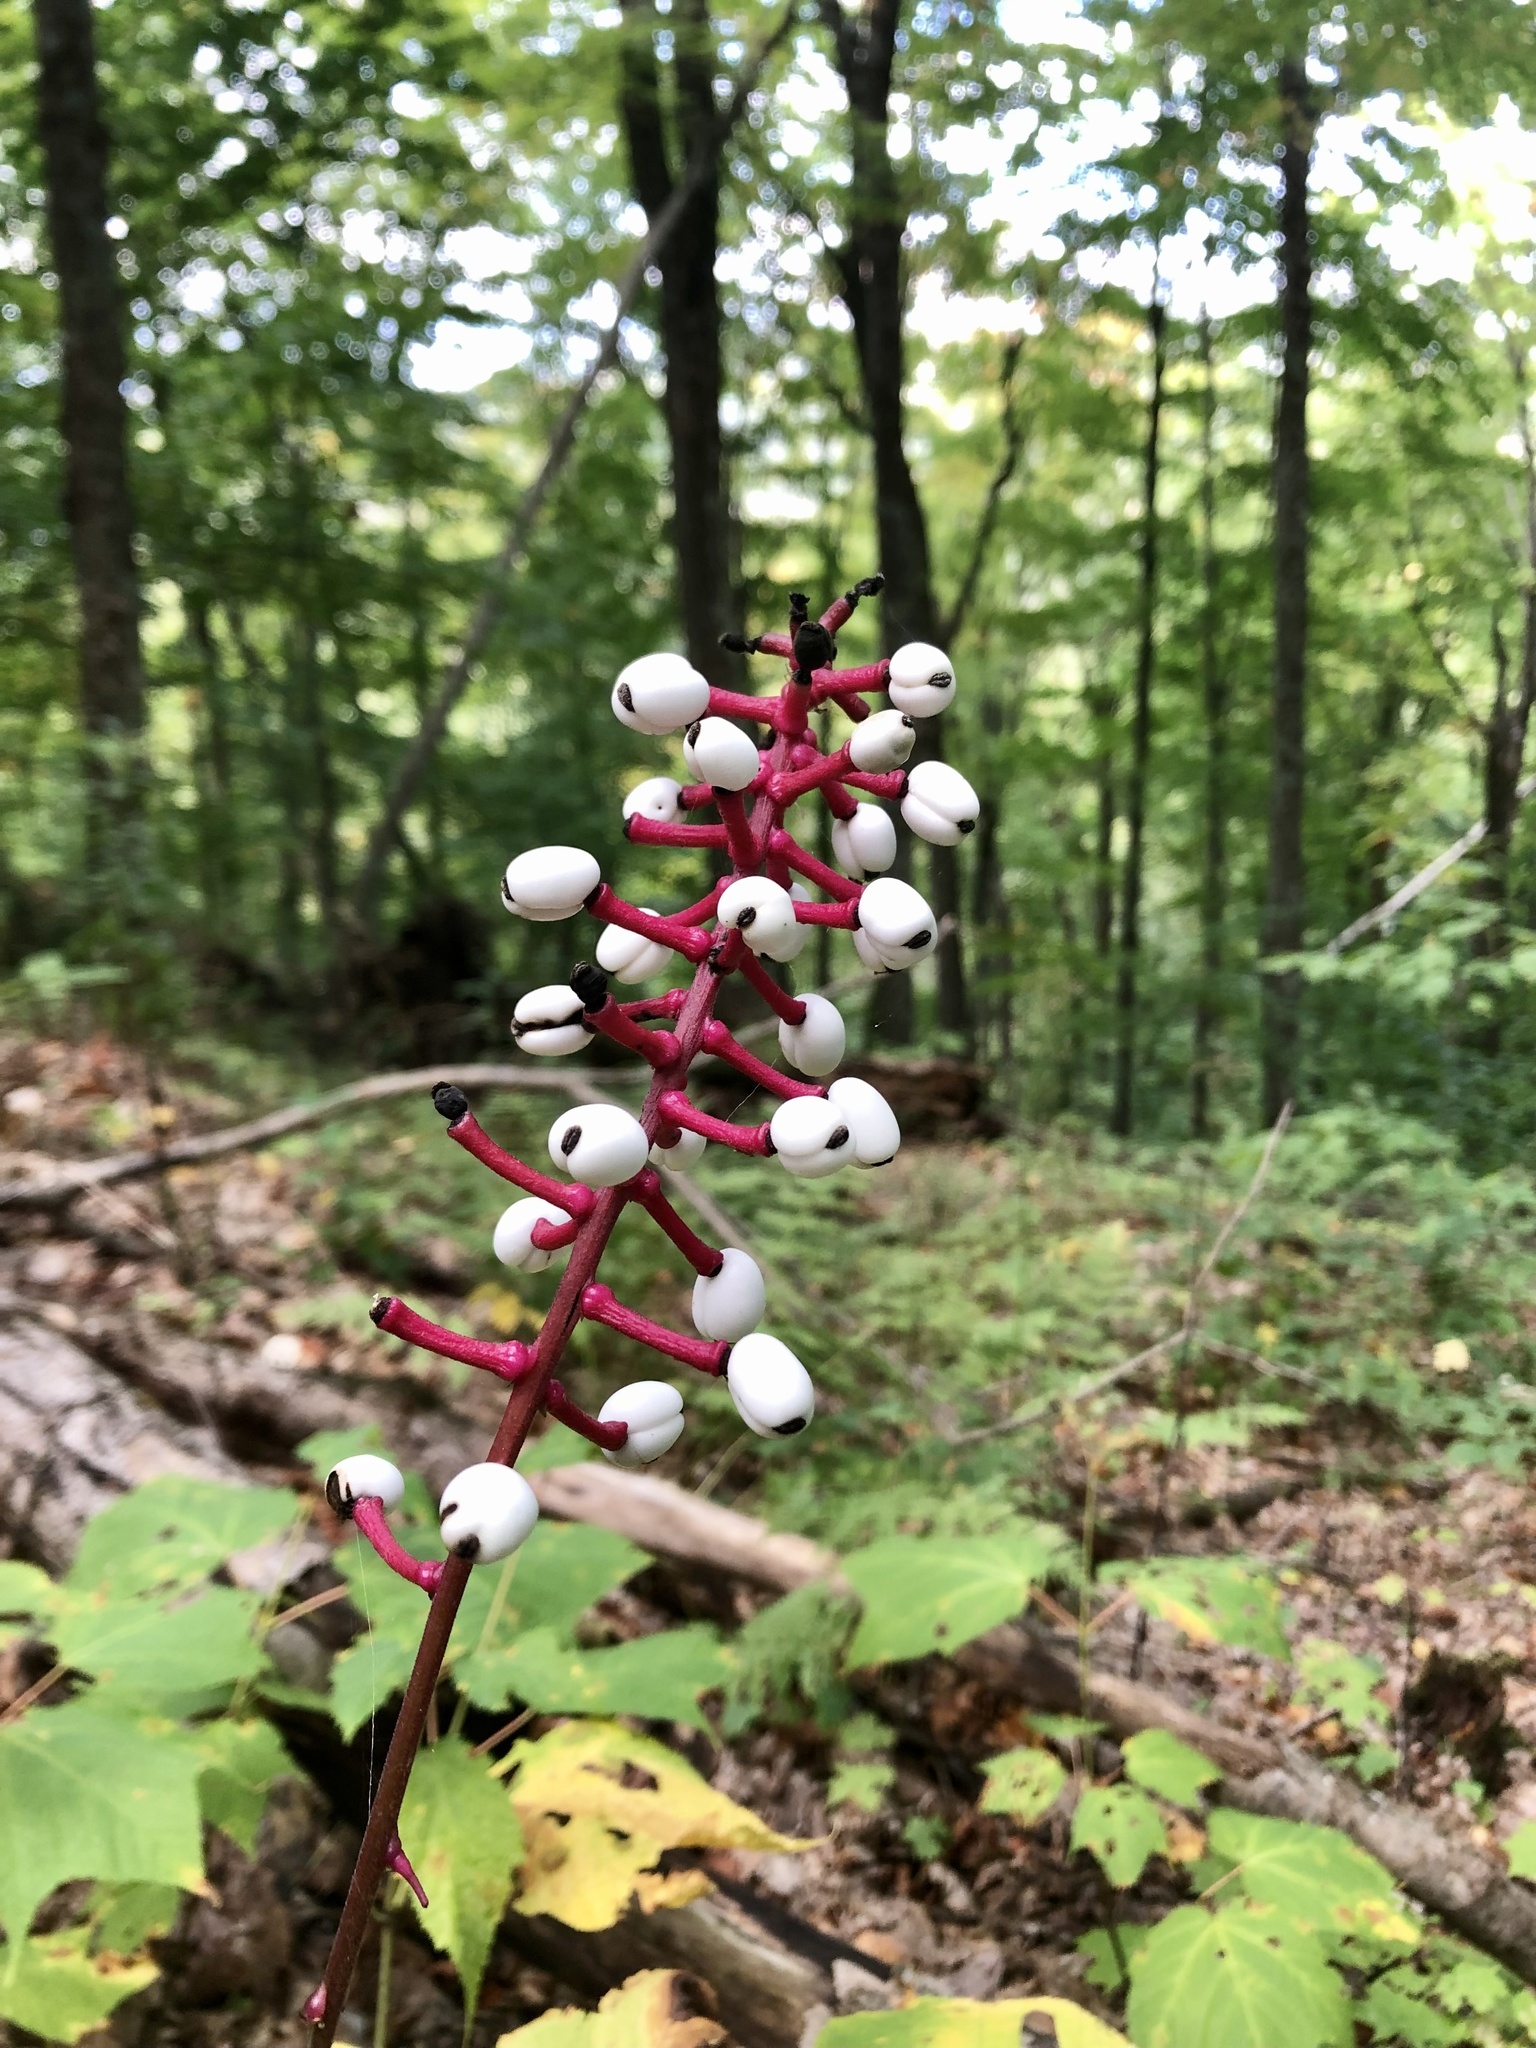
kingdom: Plantae
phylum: Tracheophyta
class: Magnoliopsida
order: Ranunculales
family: Ranunculaceae
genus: Actaea
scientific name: Actaea pachypoda
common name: Doll's-eyes
